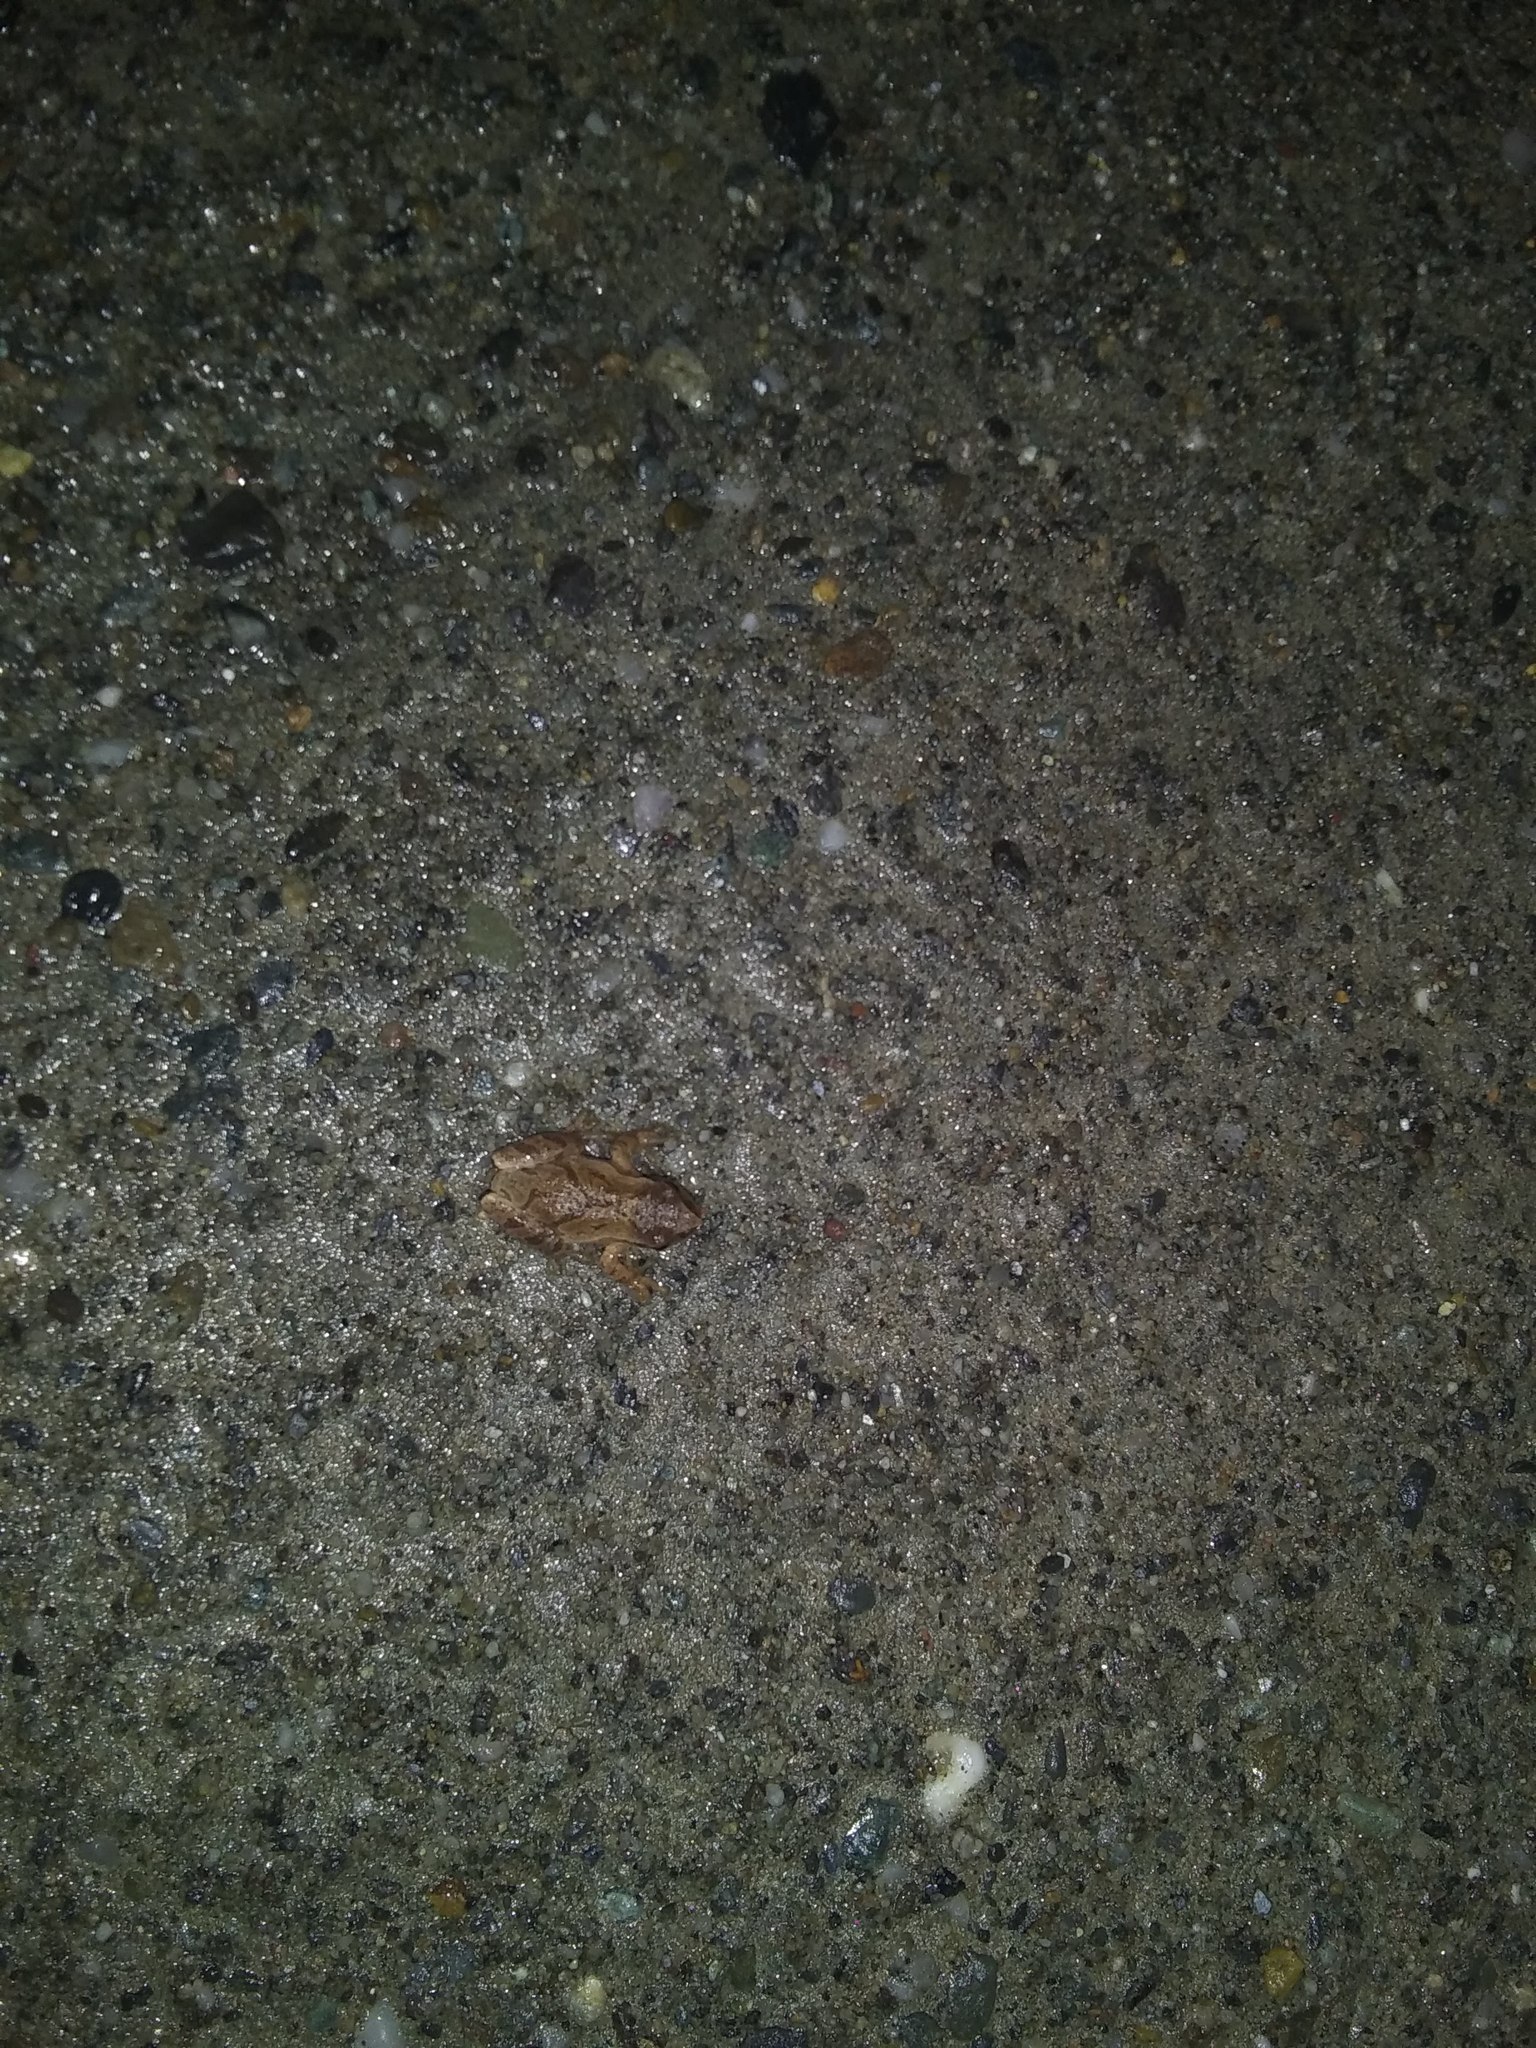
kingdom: Animalia
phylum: Chordata
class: Amphibia
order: Anura
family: Hylidae
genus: Pseudacris
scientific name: Pseudacris crucifer
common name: Spring peeper
